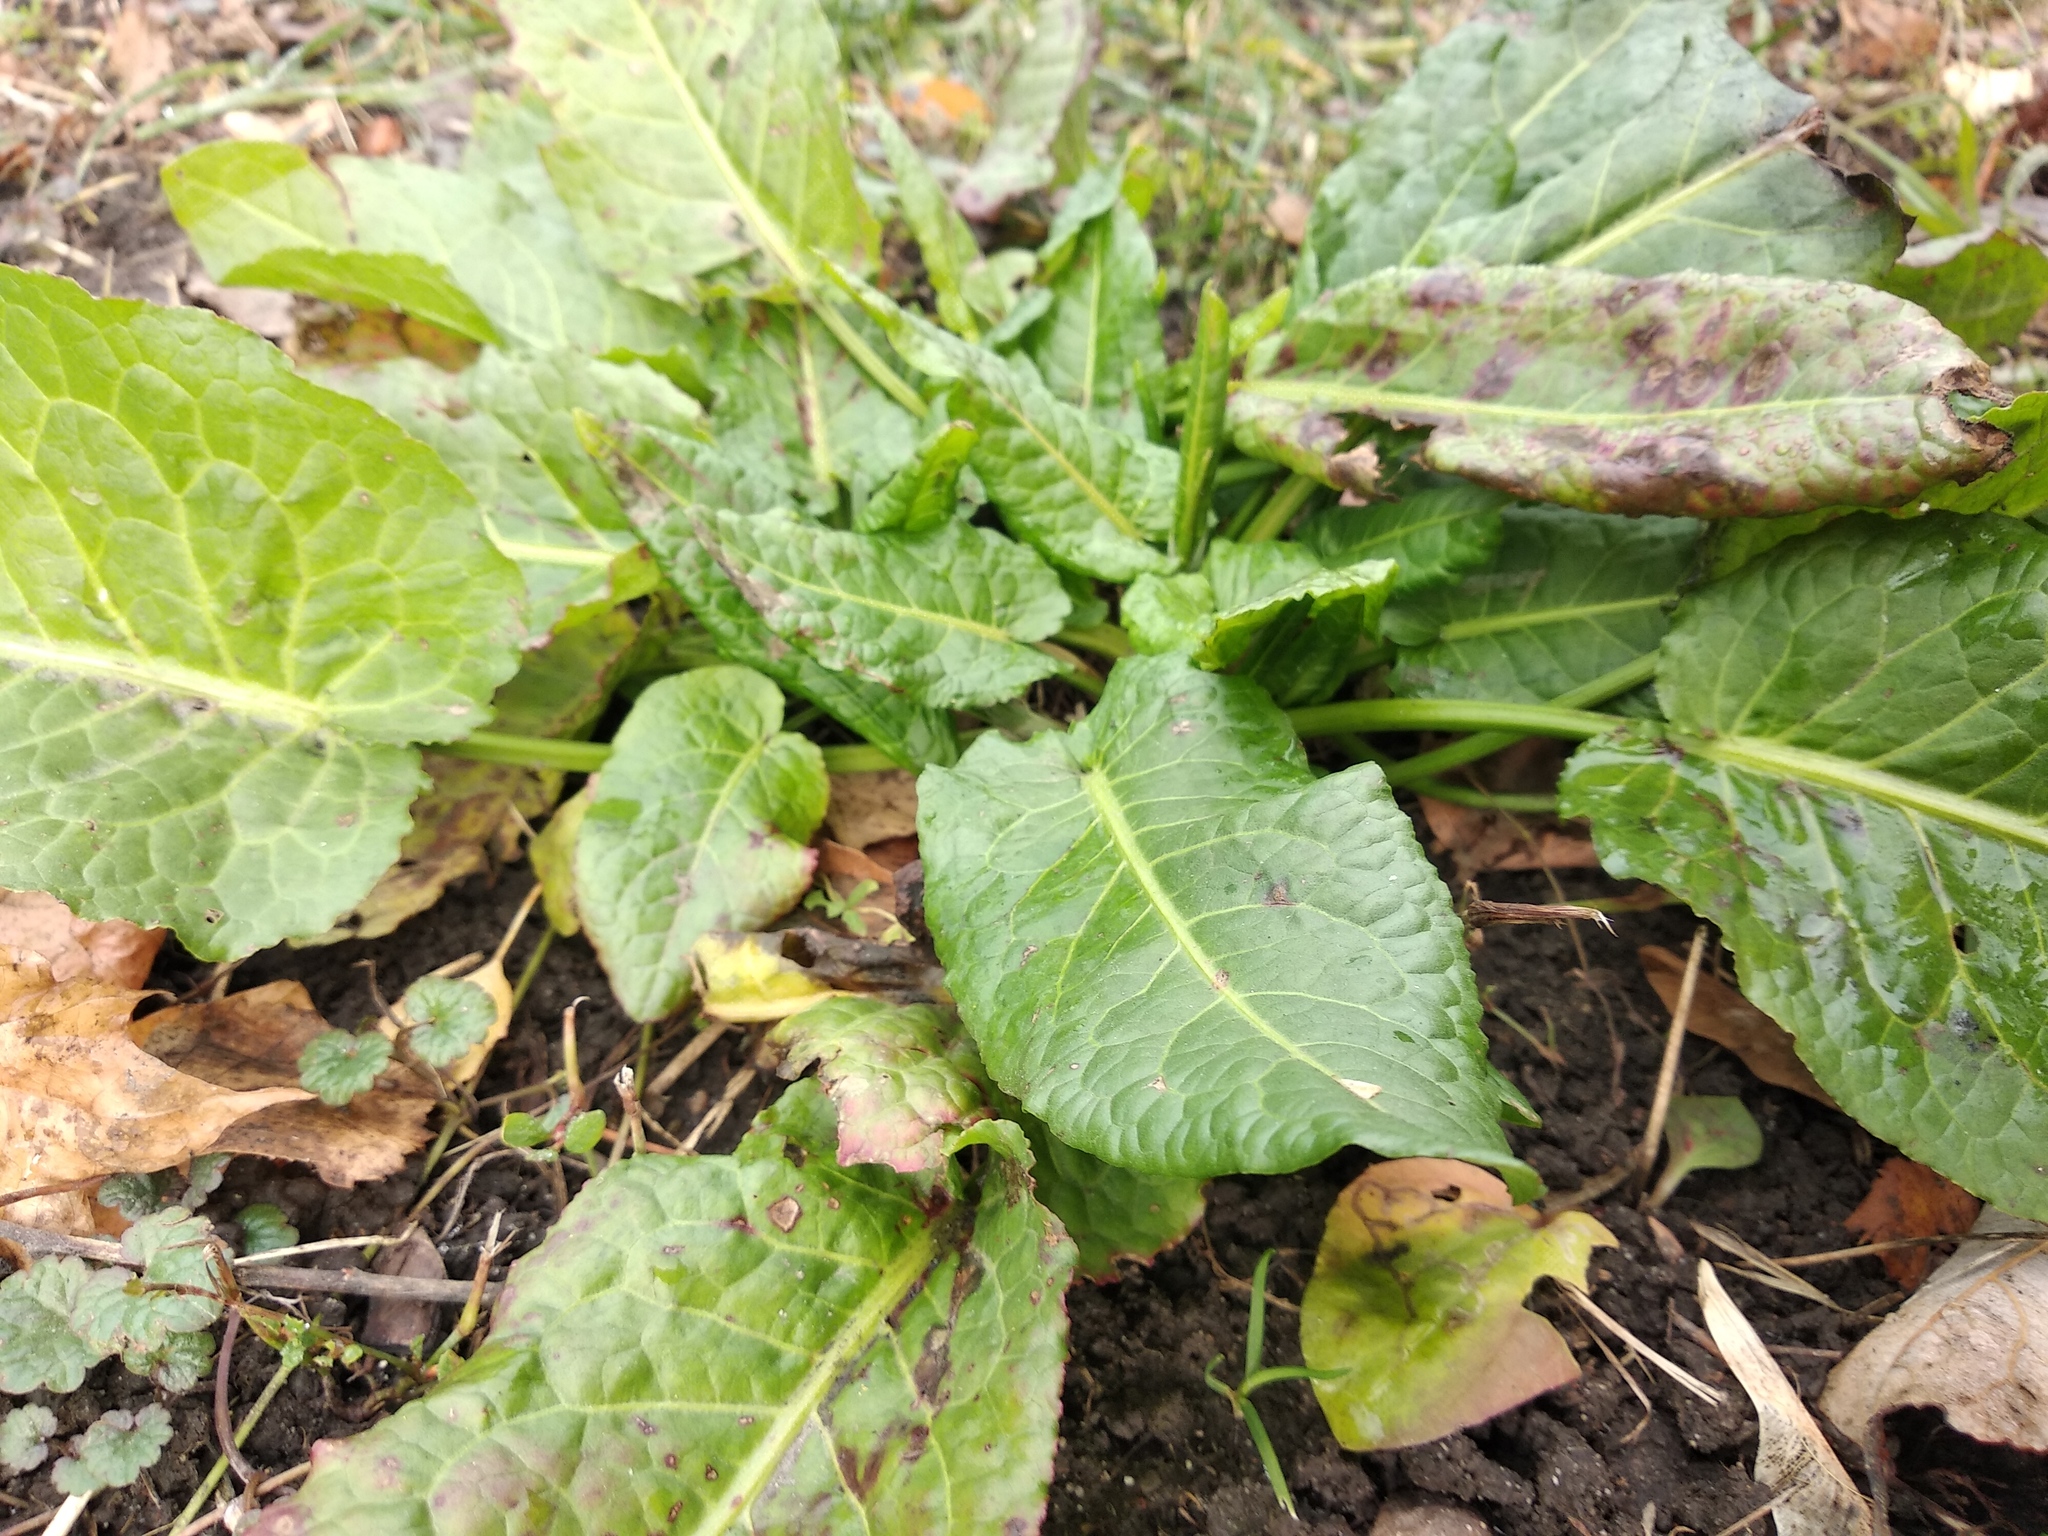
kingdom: Plantae
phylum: Tracheophyta
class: Magnoliopsida
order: Caryophyllales
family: Polygonaceae
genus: Rumex
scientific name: Rumex obtusifolius
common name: Bitter dock
